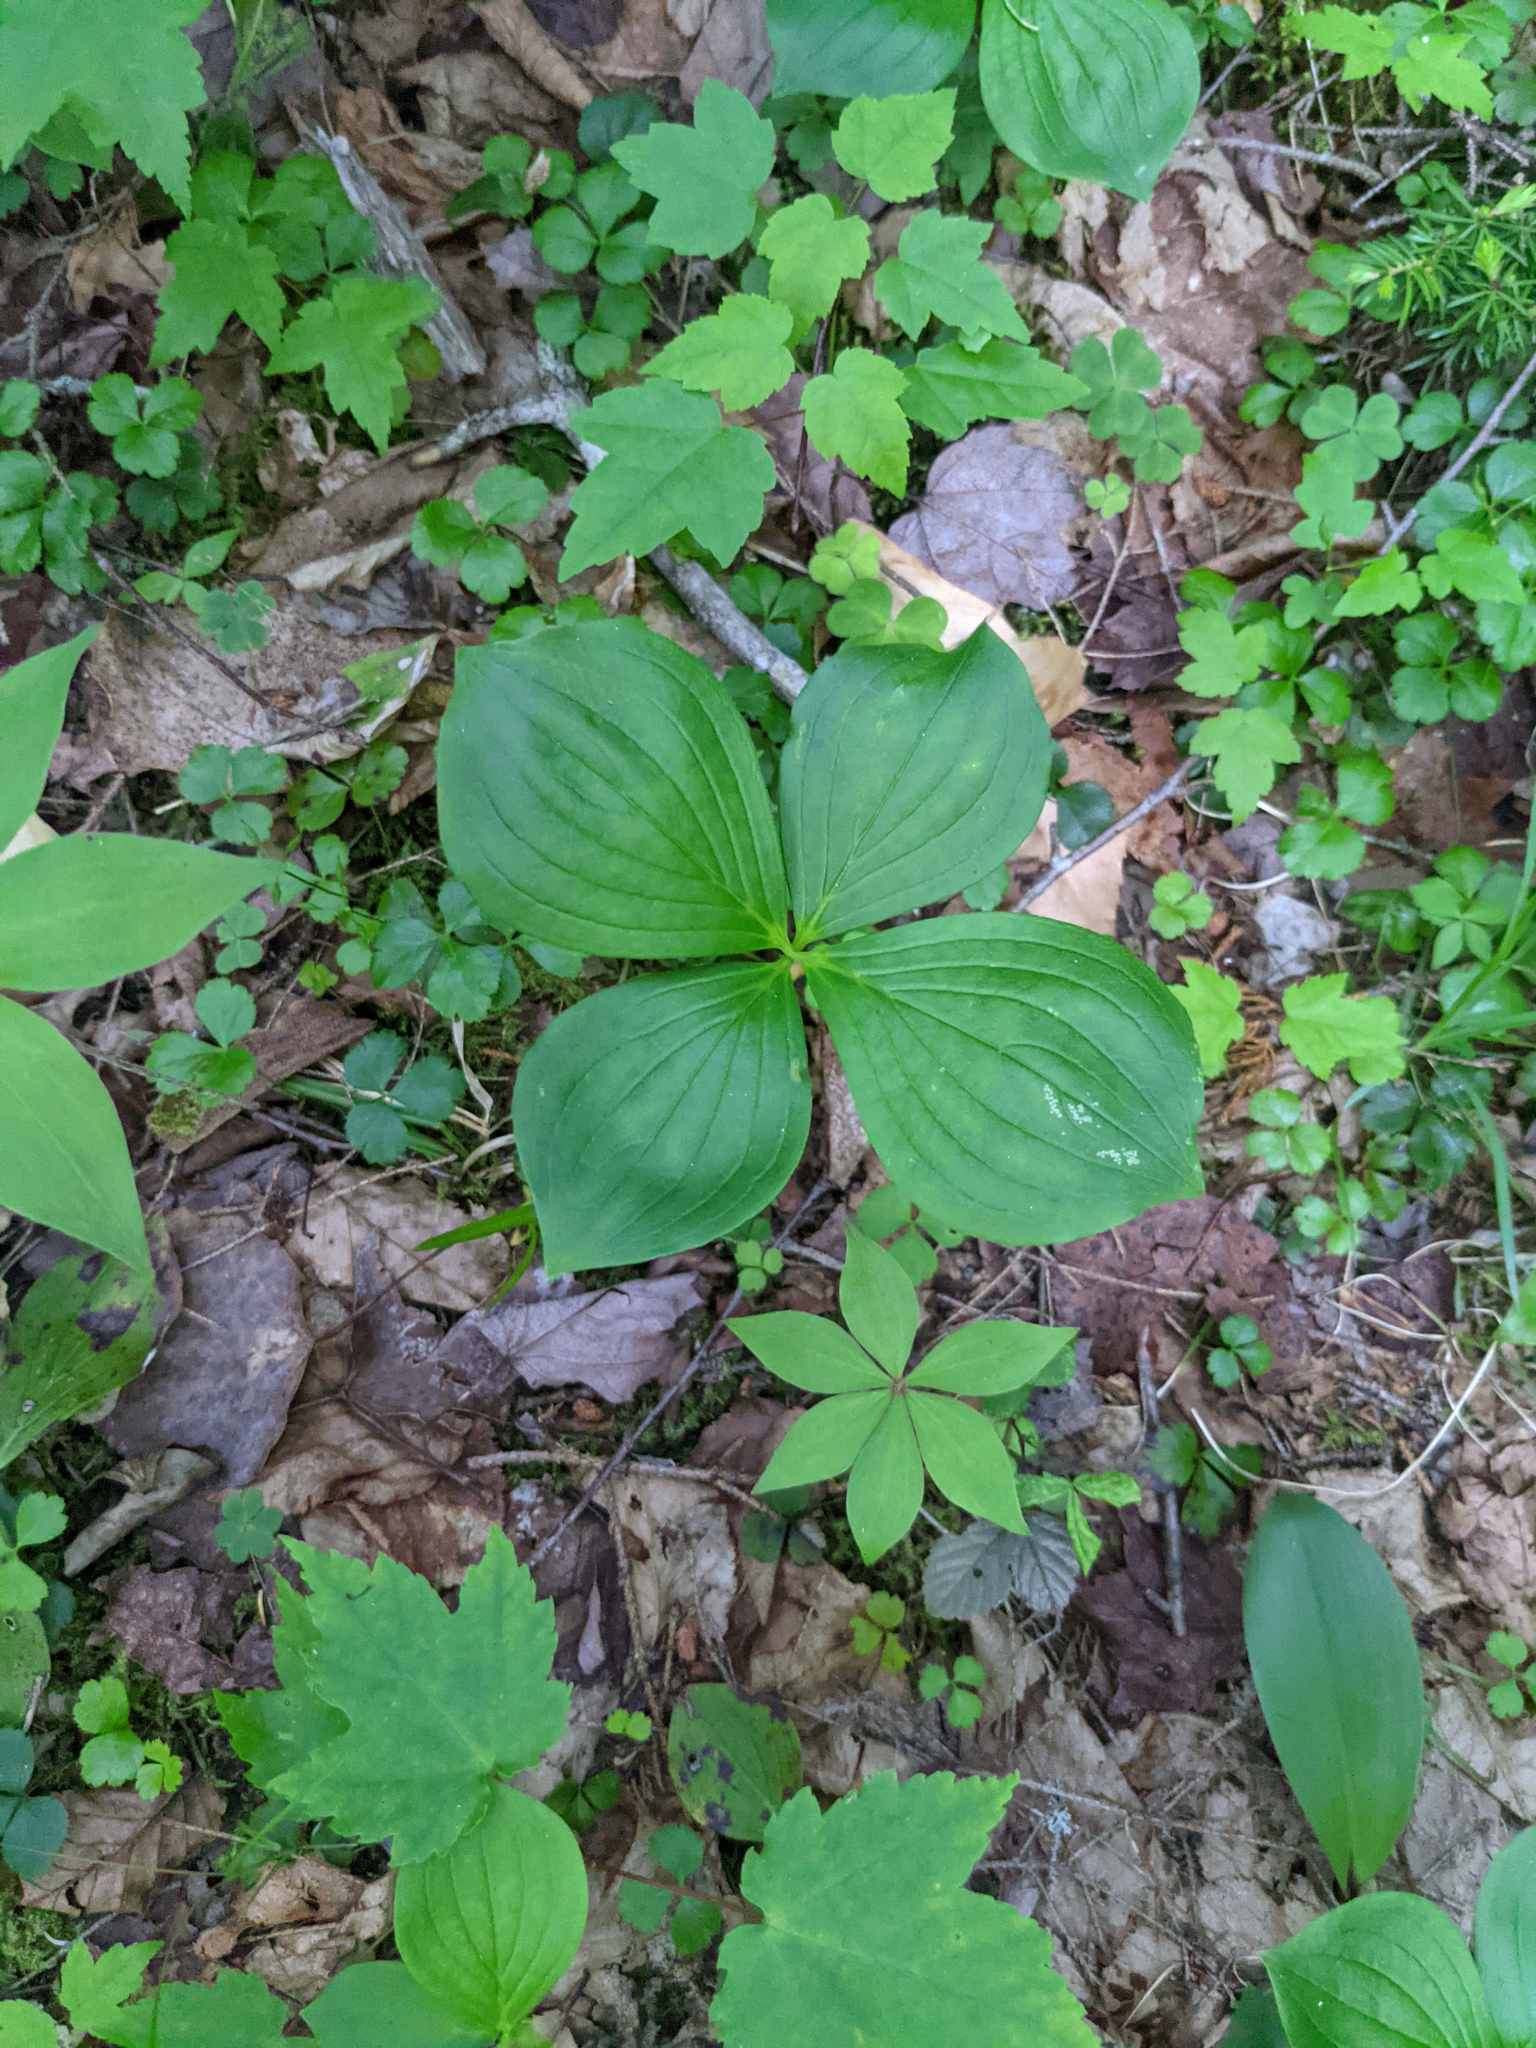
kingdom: Plantae
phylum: Tracheophyta
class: Magnoliopsida
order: Cornales
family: Cornaceae
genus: Cornus
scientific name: Cornus canadensis
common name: Creeping dogwood
